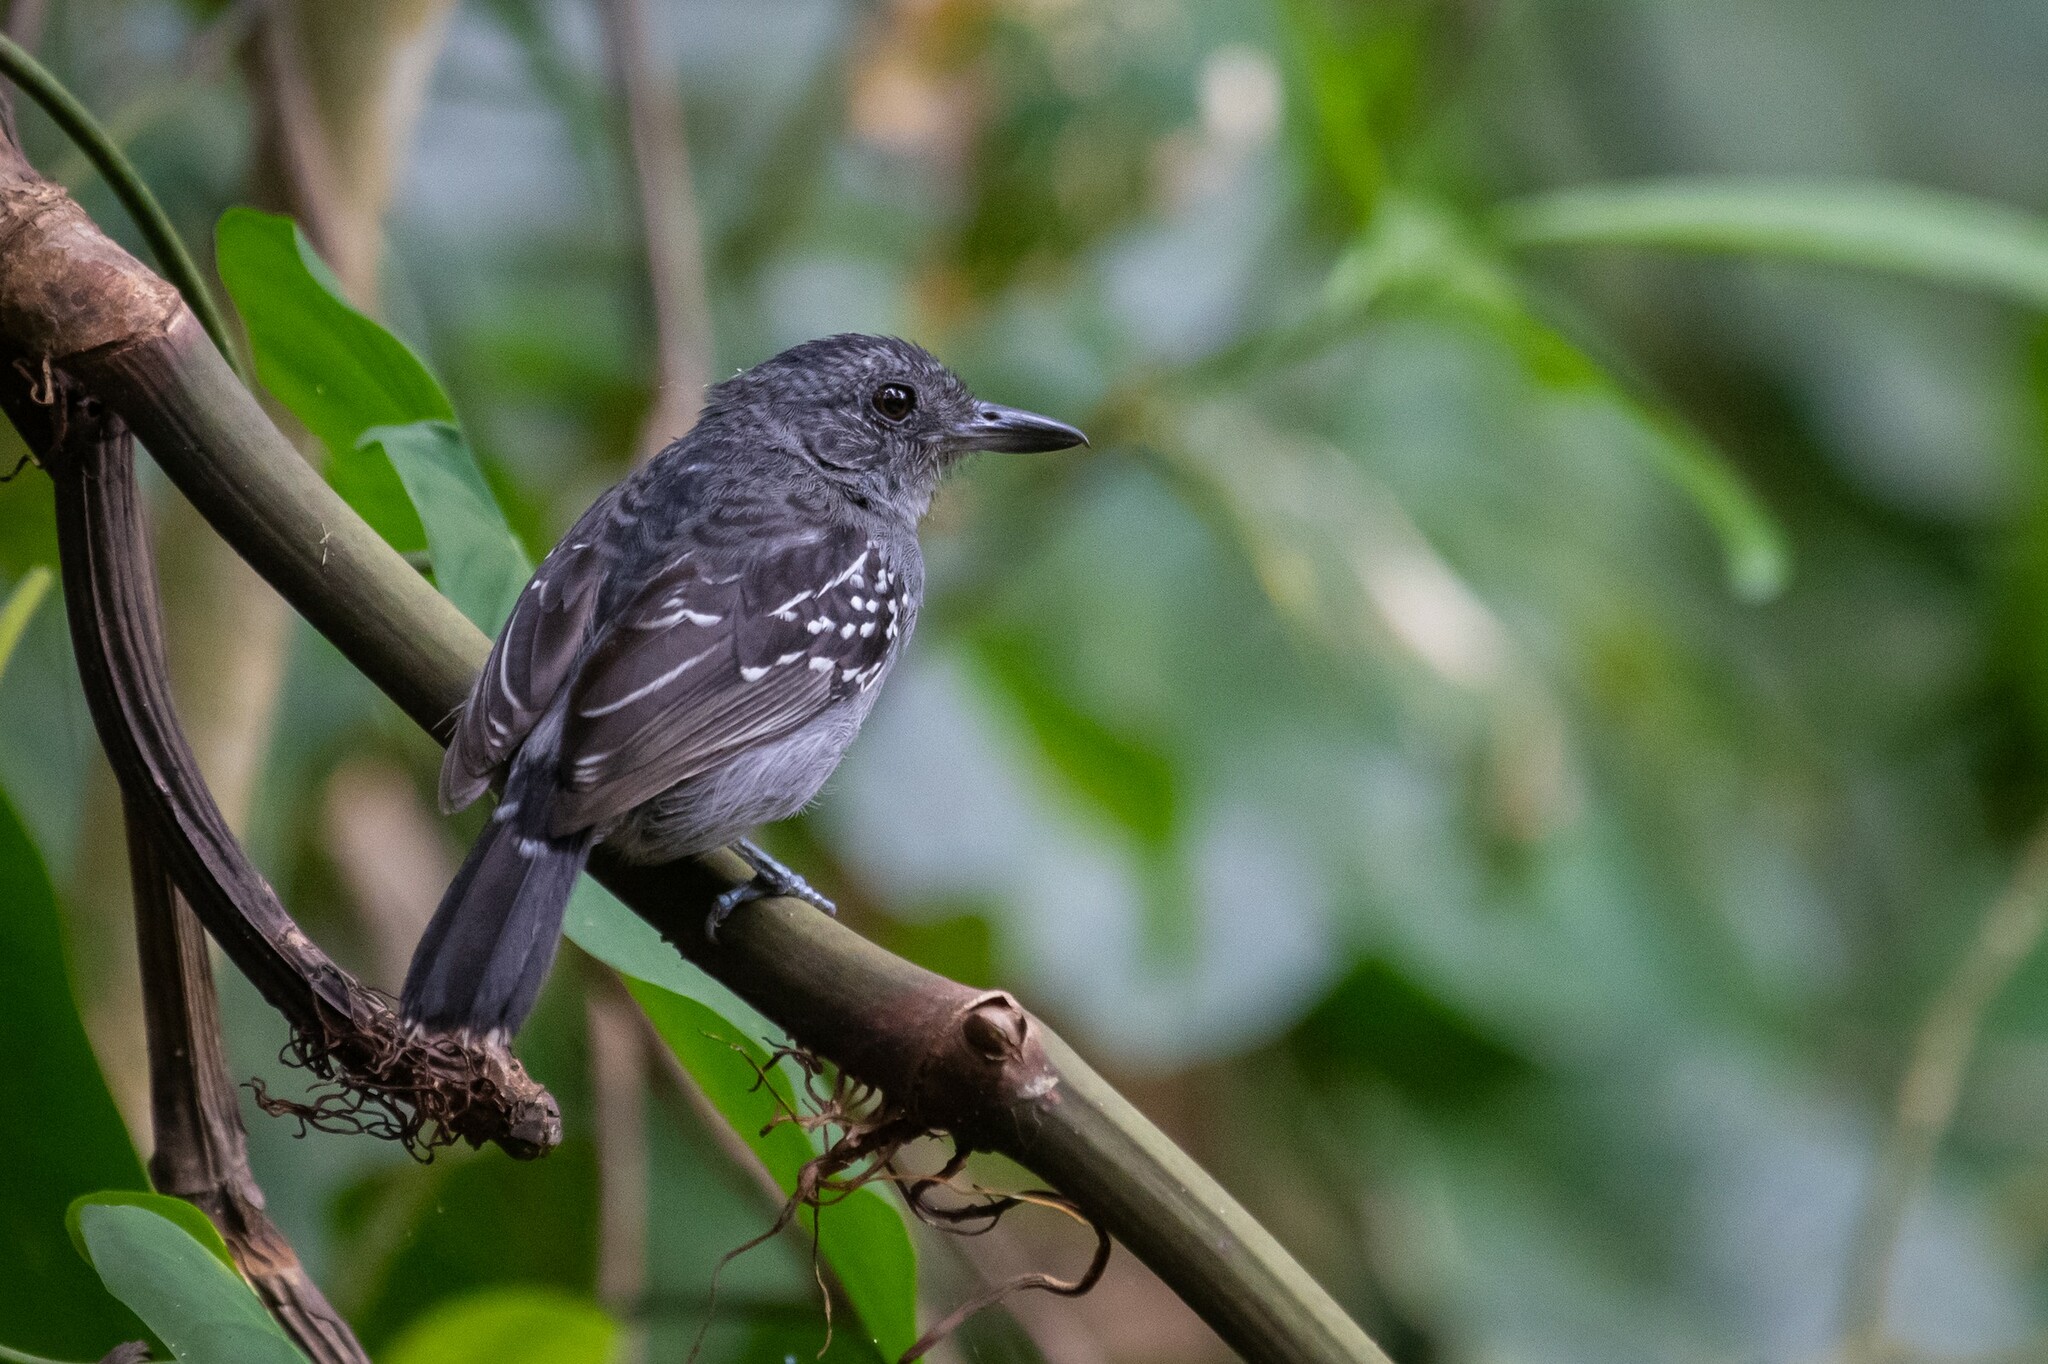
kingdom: Animalia
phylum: Chordata
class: Aves
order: Passeriformes
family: Thamnophilidae
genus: Thamnophilus
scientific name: Thamnophilus atrinucha
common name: Black-crowned antshrike
